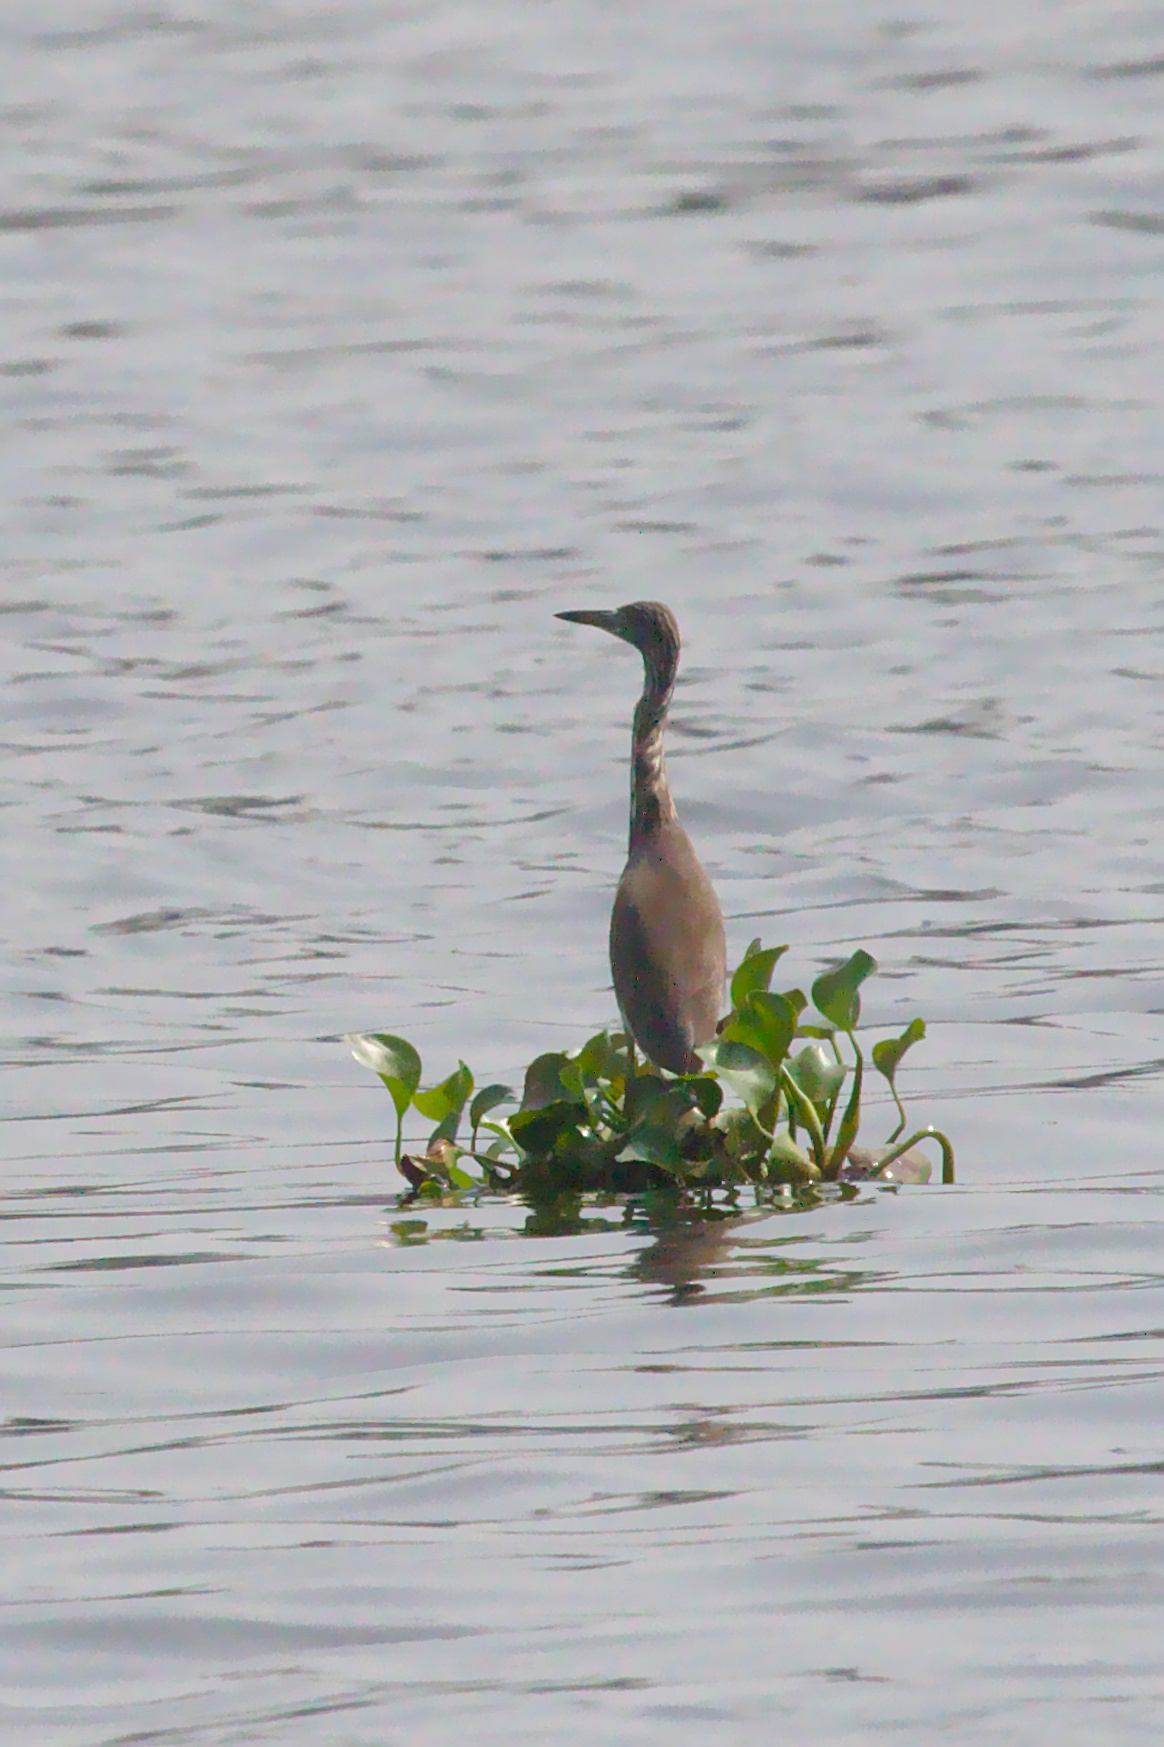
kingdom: Animalia
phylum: Chordata
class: Aves
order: Pelecaniformes
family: Ardeidae
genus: Ardeola
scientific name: Ardeola grayii
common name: Indian pond heron
